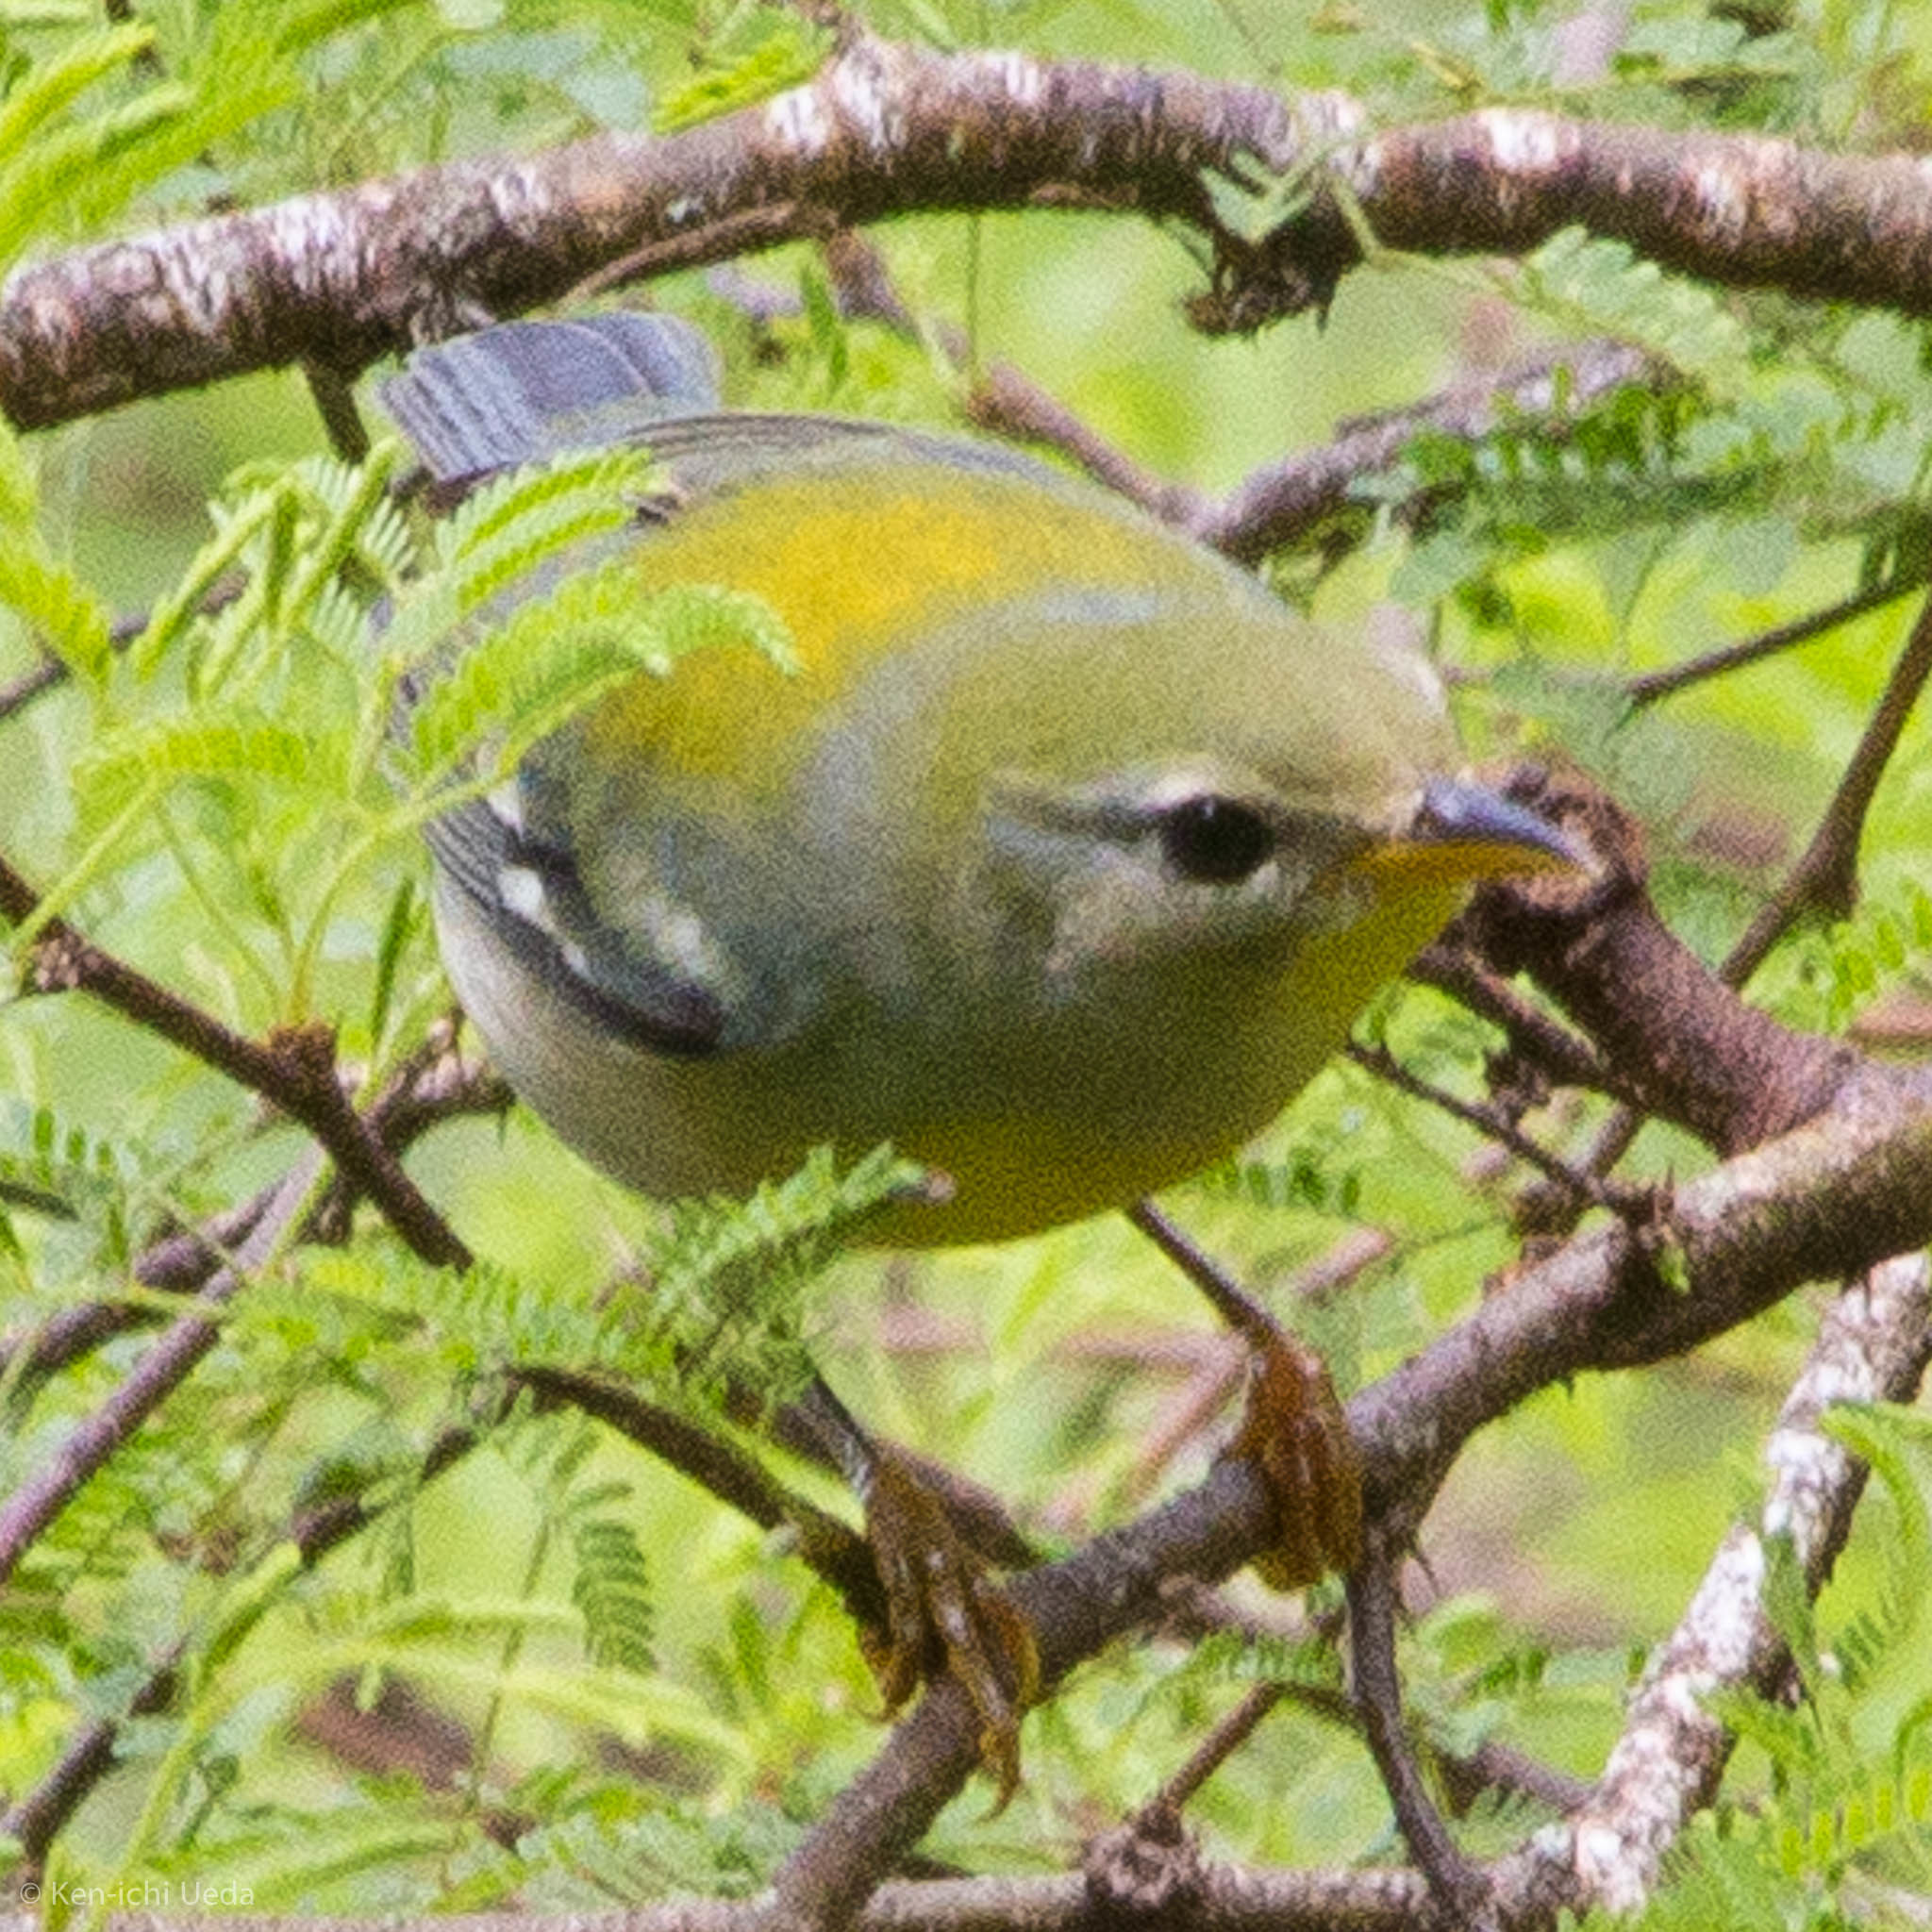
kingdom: Animalia
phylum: Chordata
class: Aves
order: Passeriformes
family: Parulidae
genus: Setophaga
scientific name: Setophaga americana
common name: Northern parula
